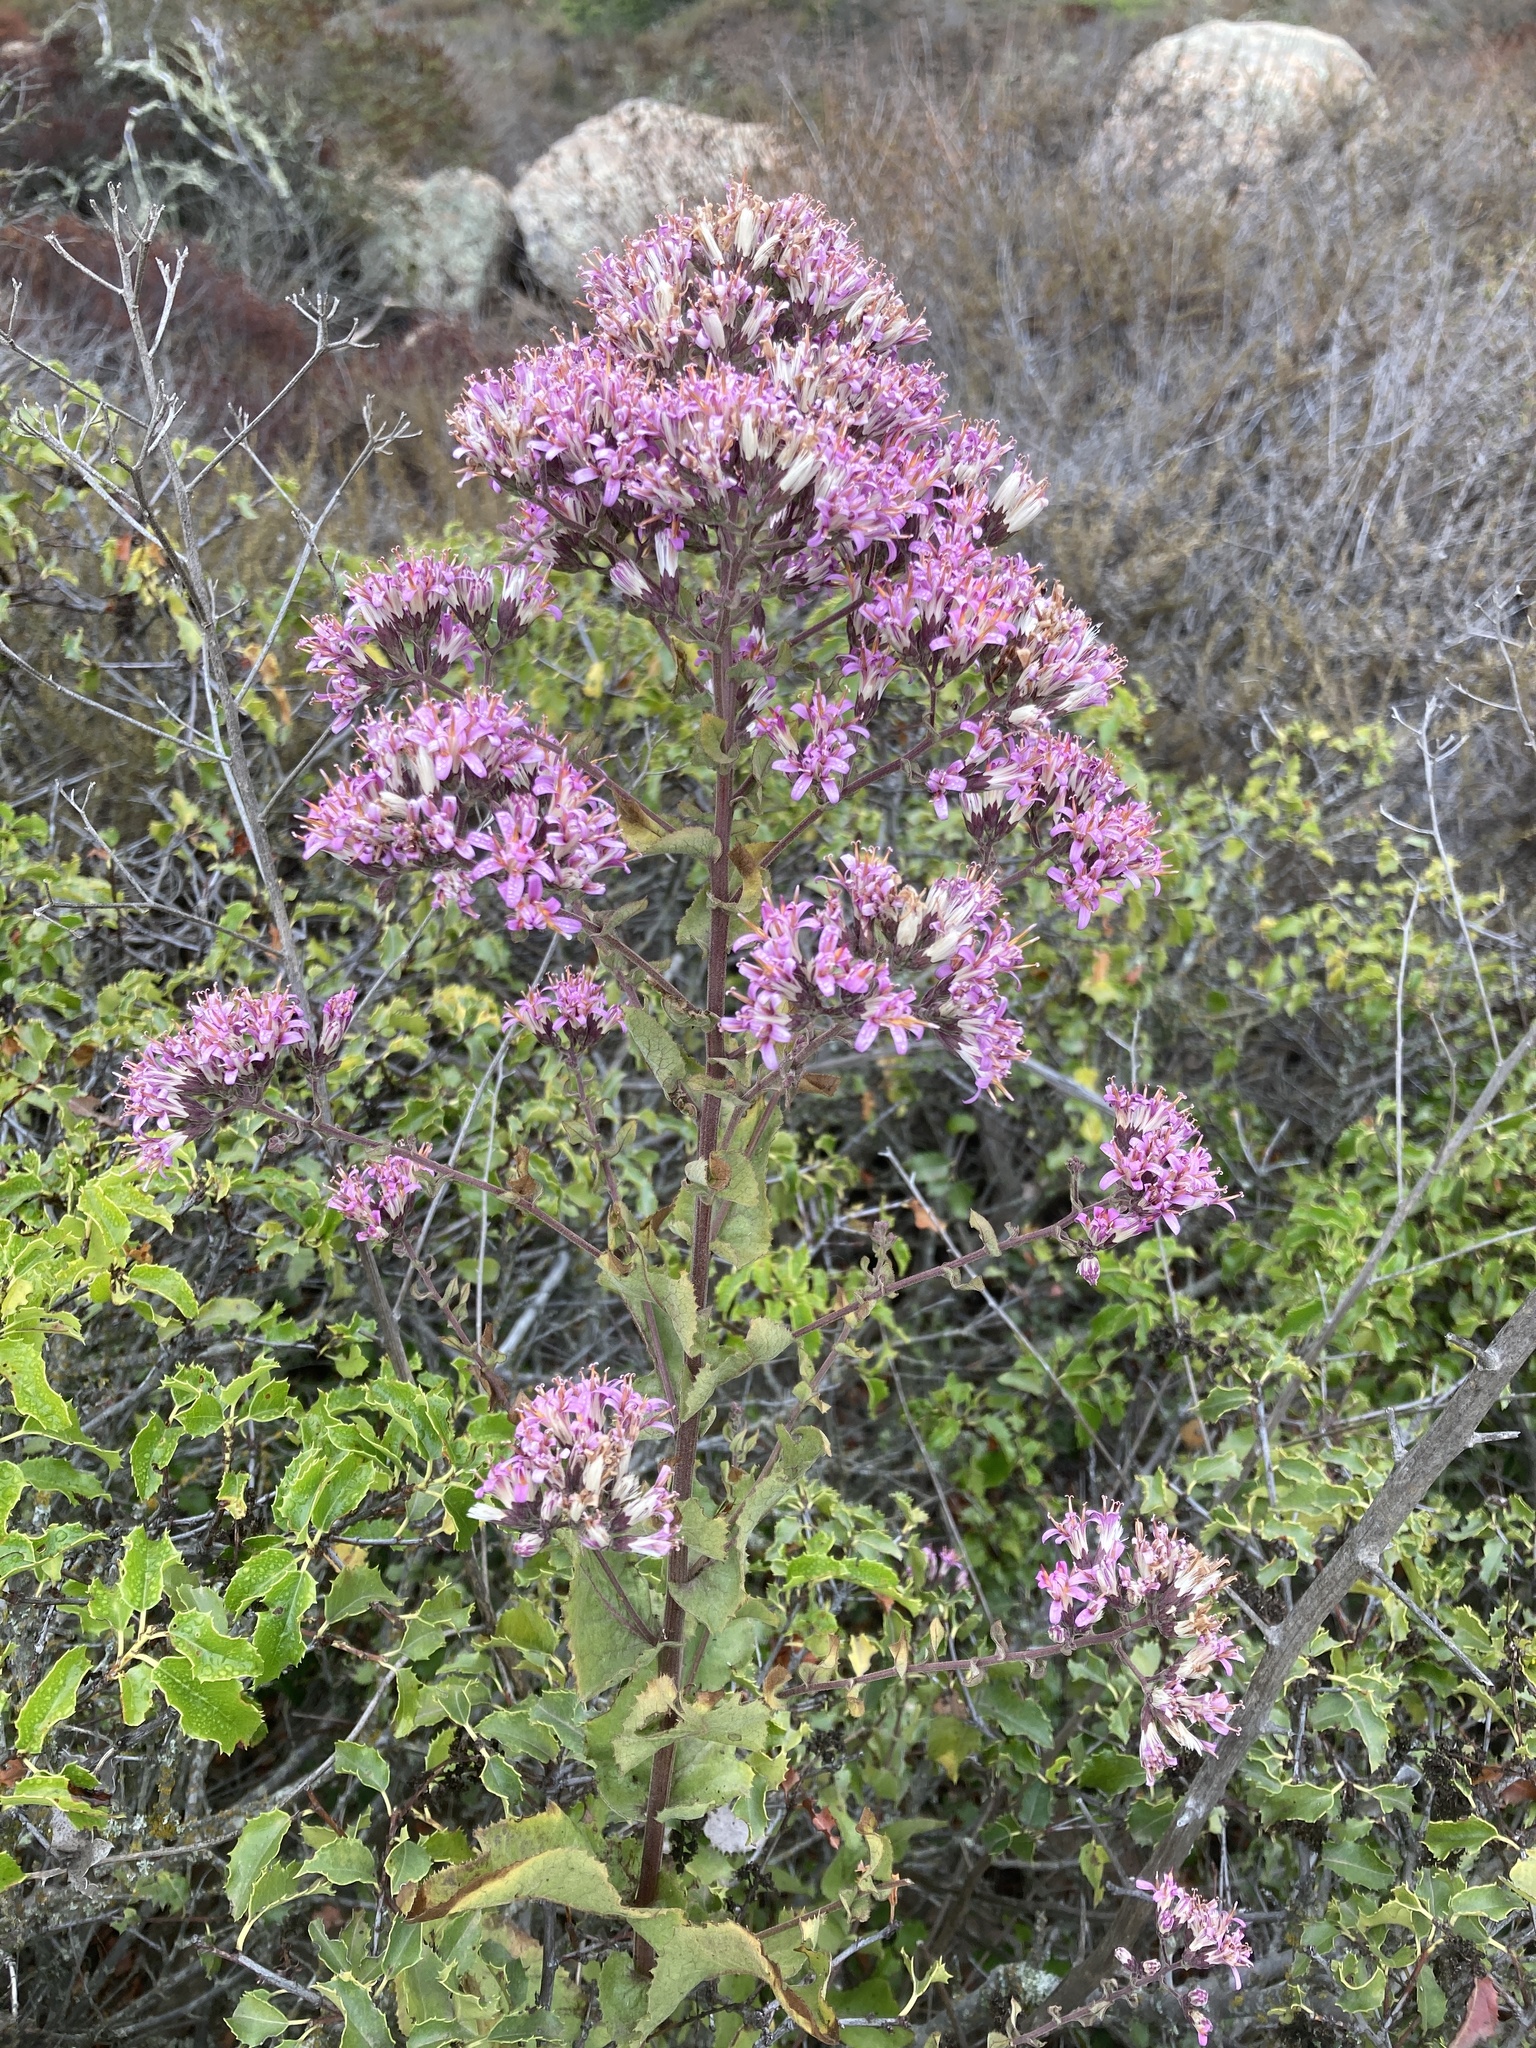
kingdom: Plantae
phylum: Tracheophyta
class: Magnoliopsida
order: Asterales
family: Asteraceae
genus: Acourtia
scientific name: Acourtia microcephala
